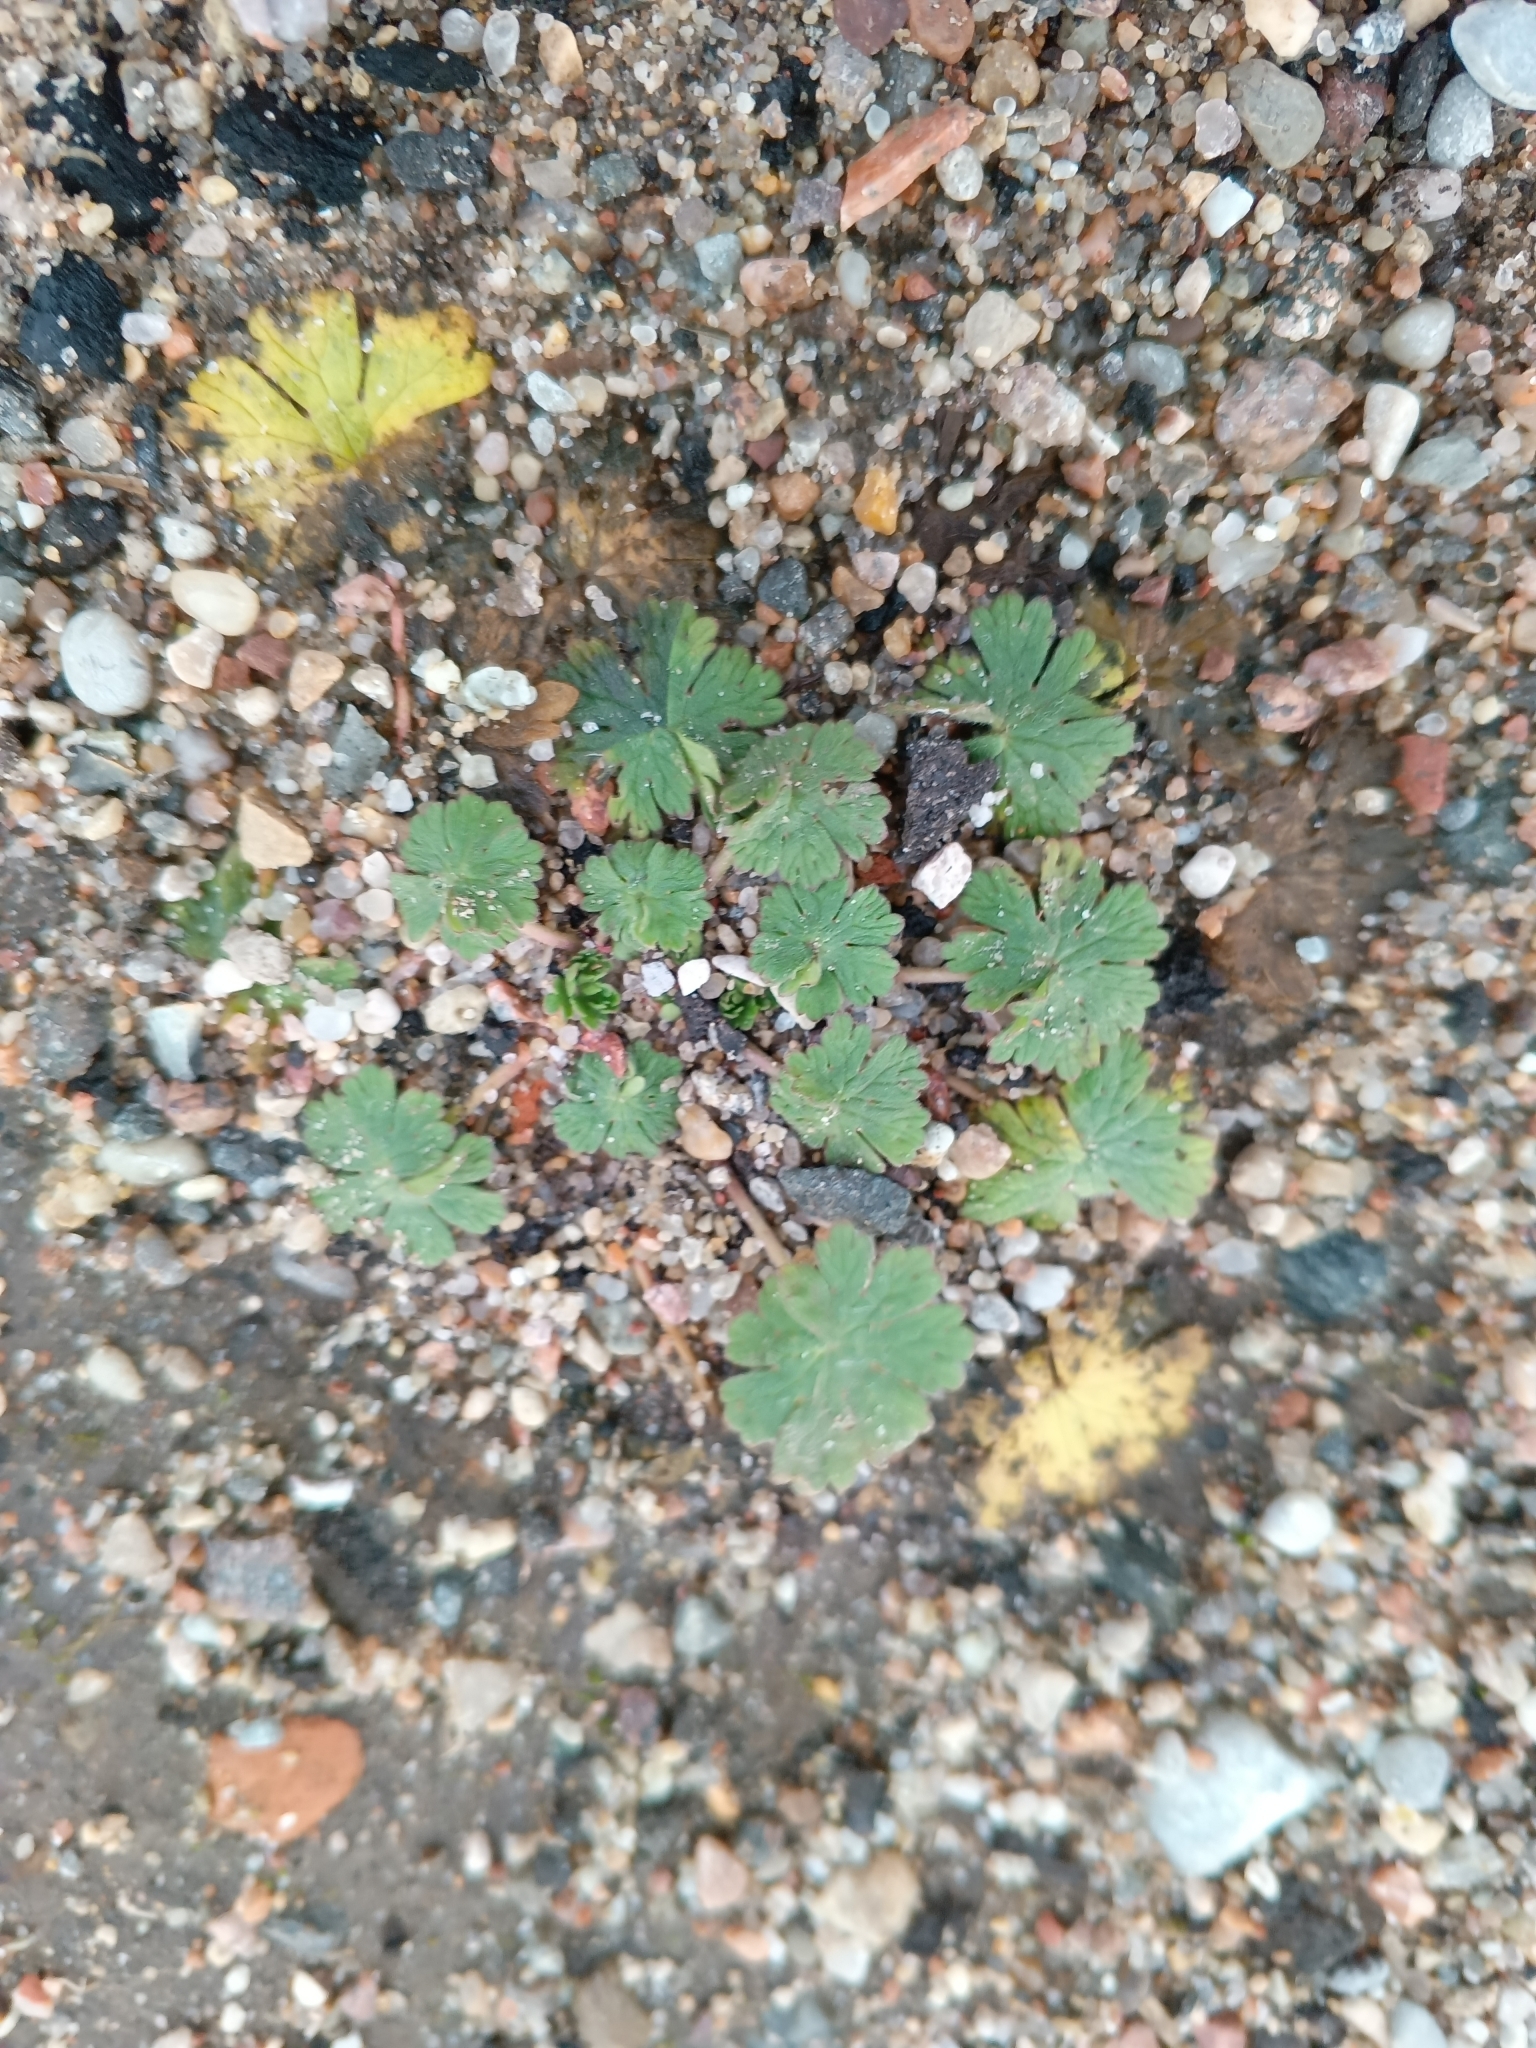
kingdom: Plantae
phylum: Tracheophyta
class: Magnoliopsida
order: Geraniales
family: Geraniaceae
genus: Geranium
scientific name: Geranium pusillum
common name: Small geranium
